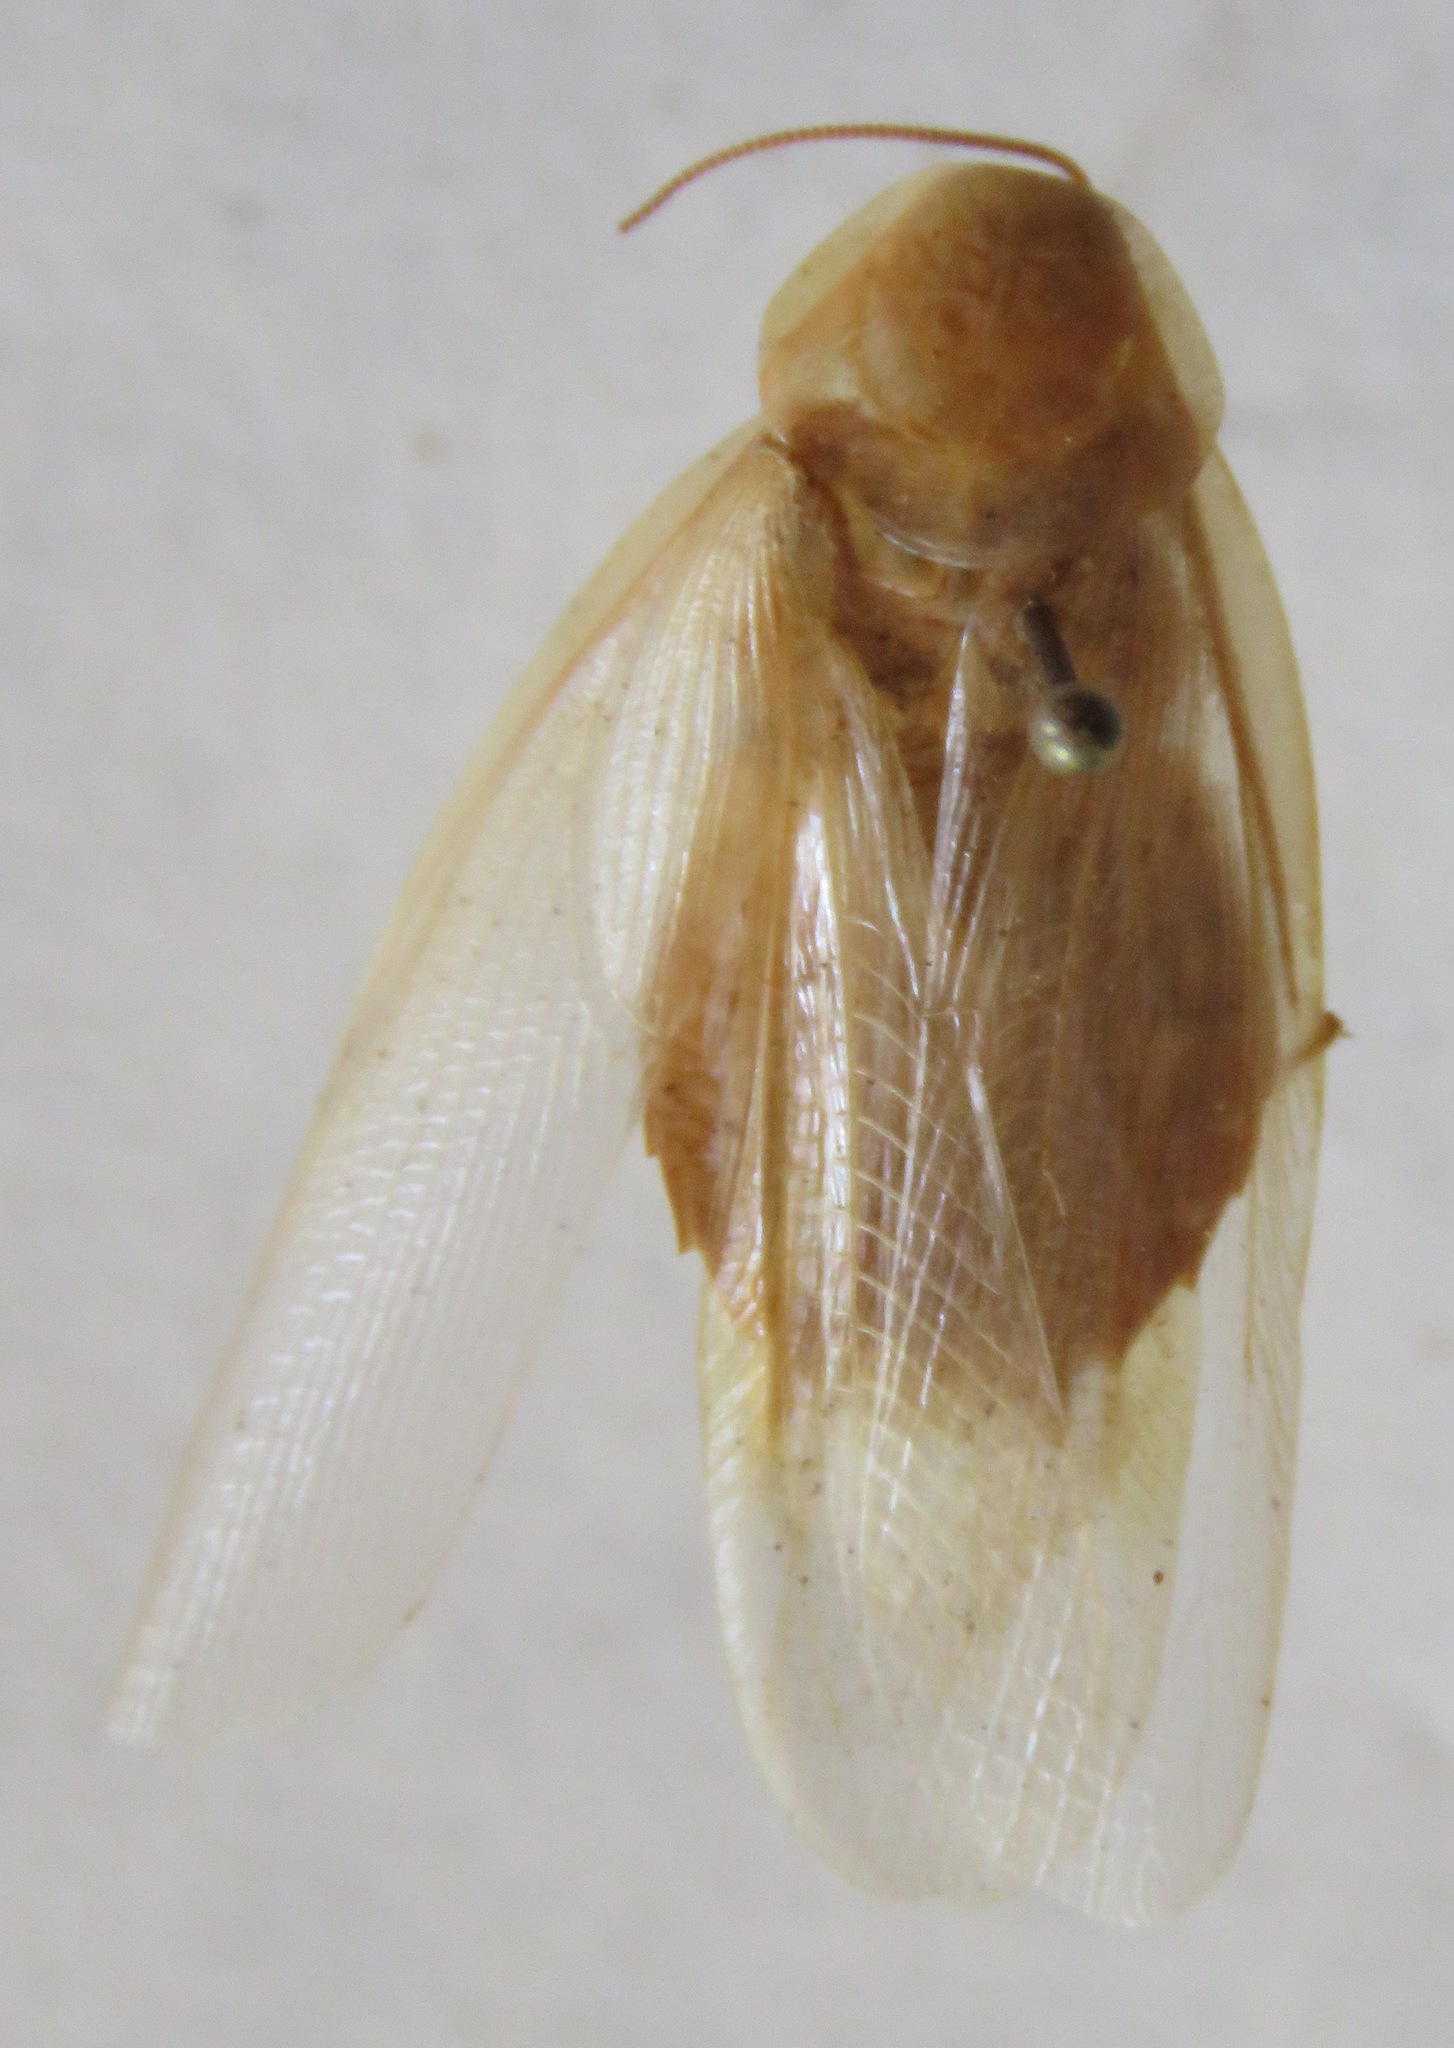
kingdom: Animalia
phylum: Arthropoda
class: Insecta
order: Blattodea
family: Blaberidae
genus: Panchlora
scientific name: Panchlora nivea
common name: Cuban cockroach
